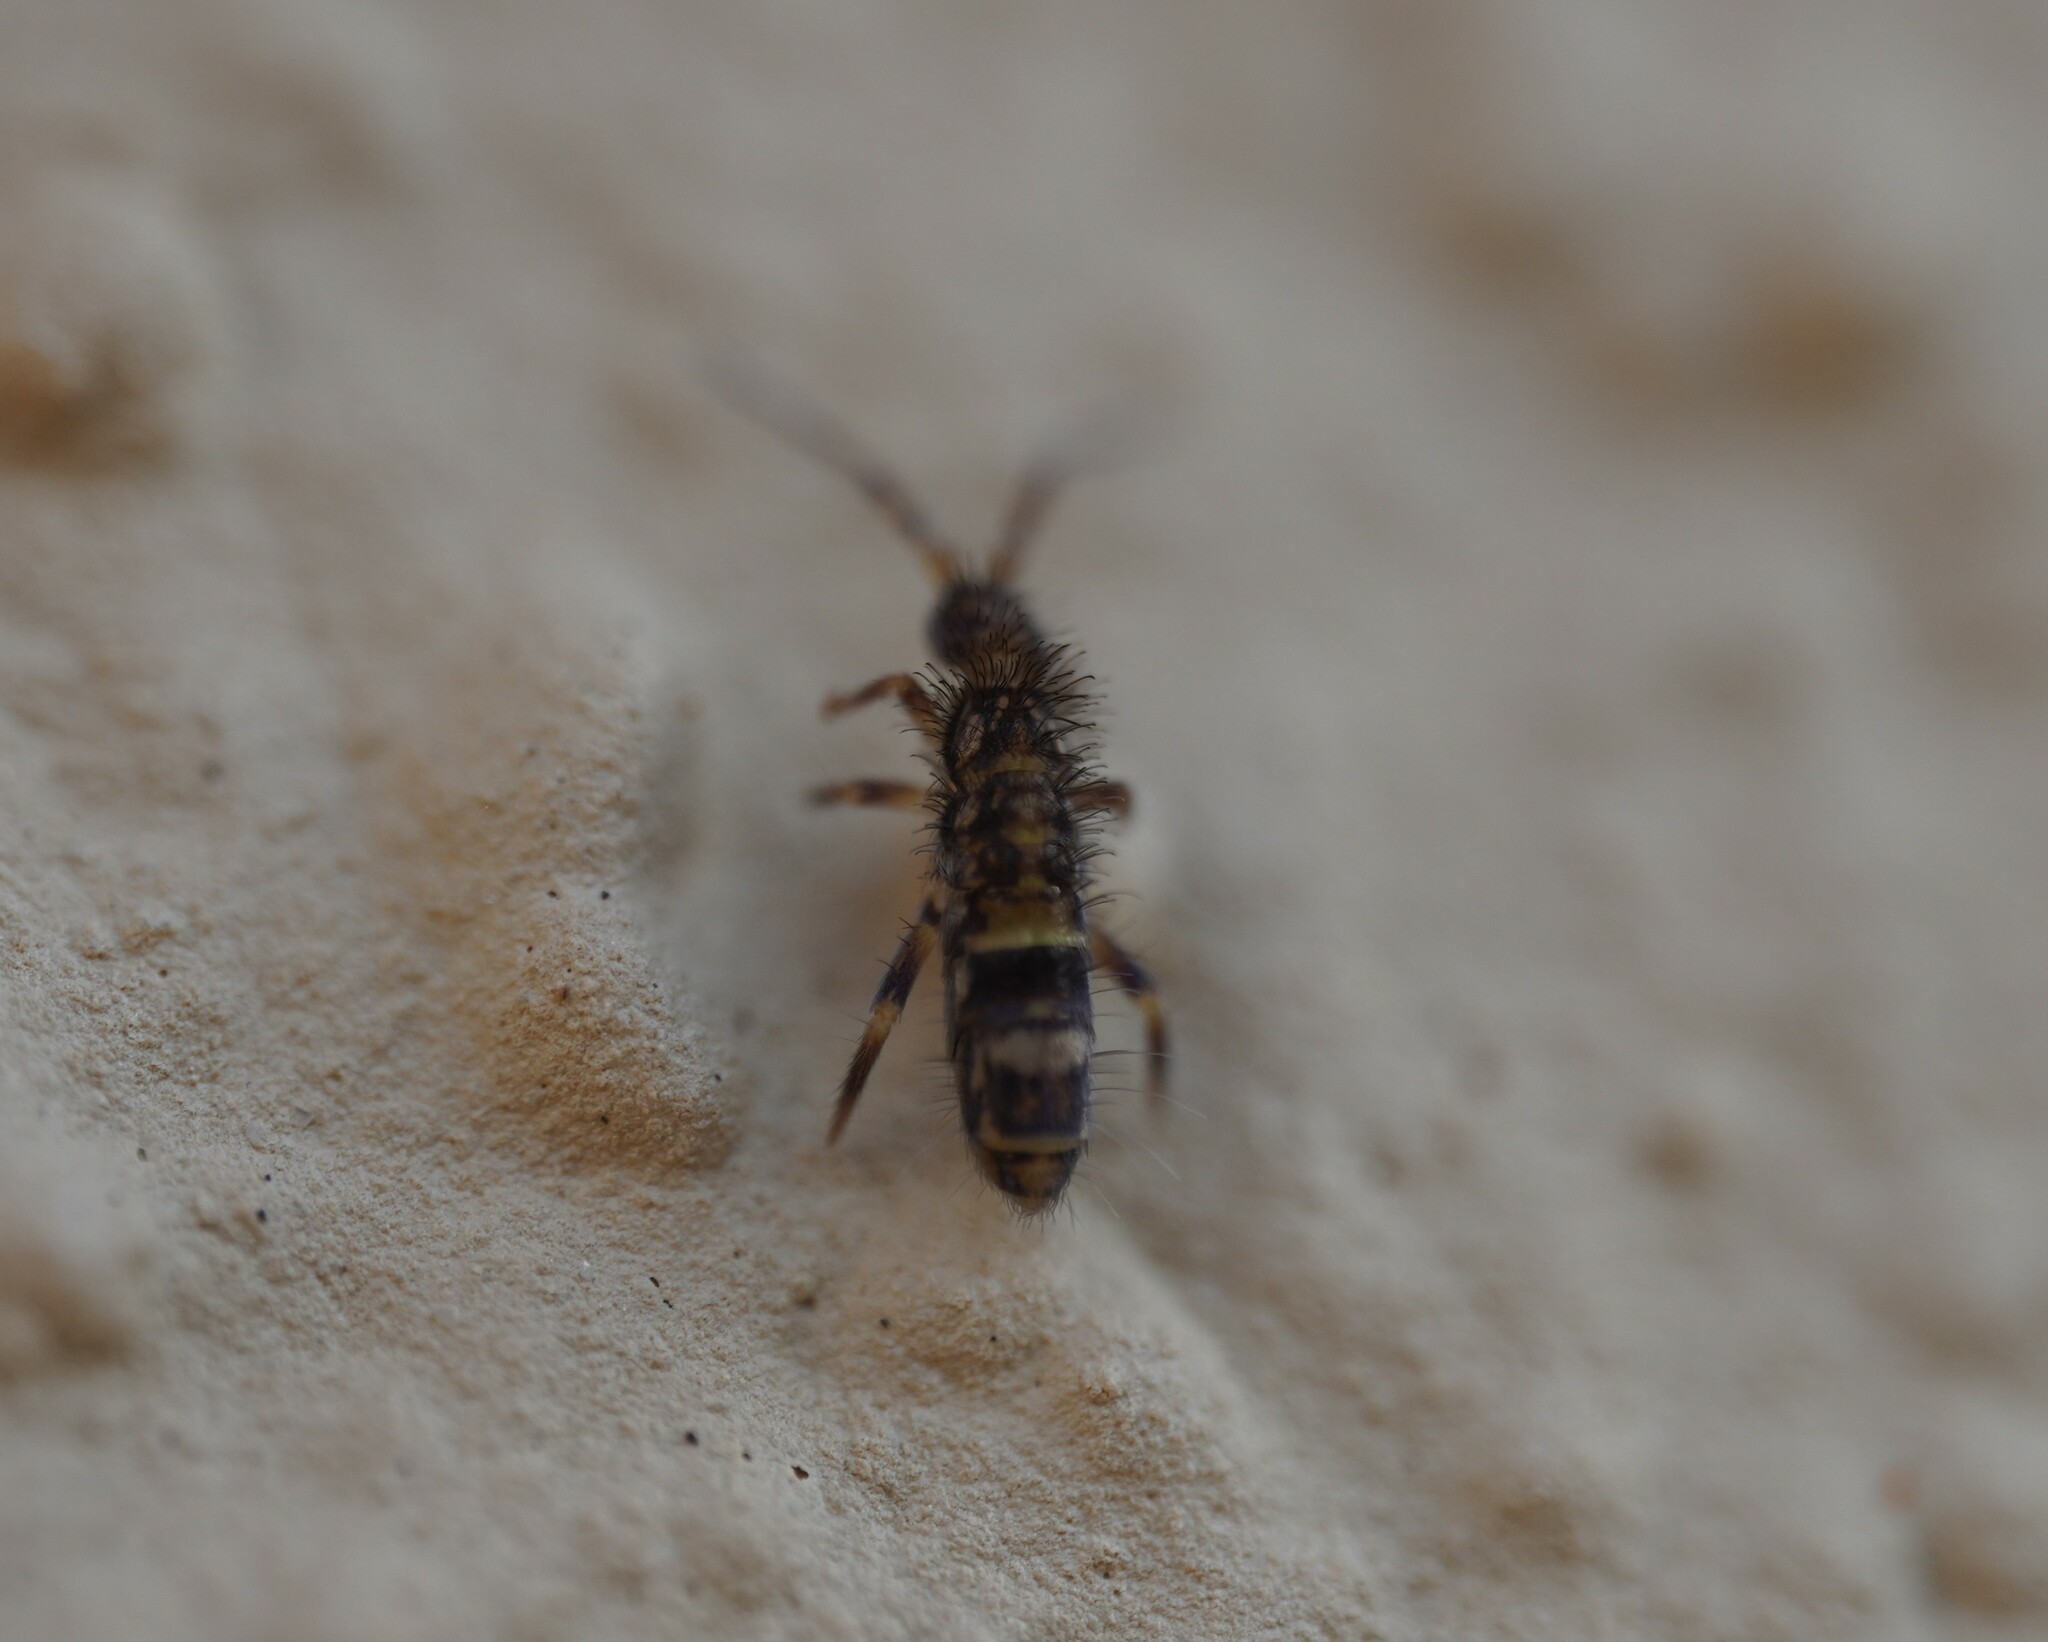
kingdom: Animalia
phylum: Arthropoda
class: Collembola
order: Entomobryomorpha
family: Orchesellidae
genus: Orchesella
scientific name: Orchesella cincta
